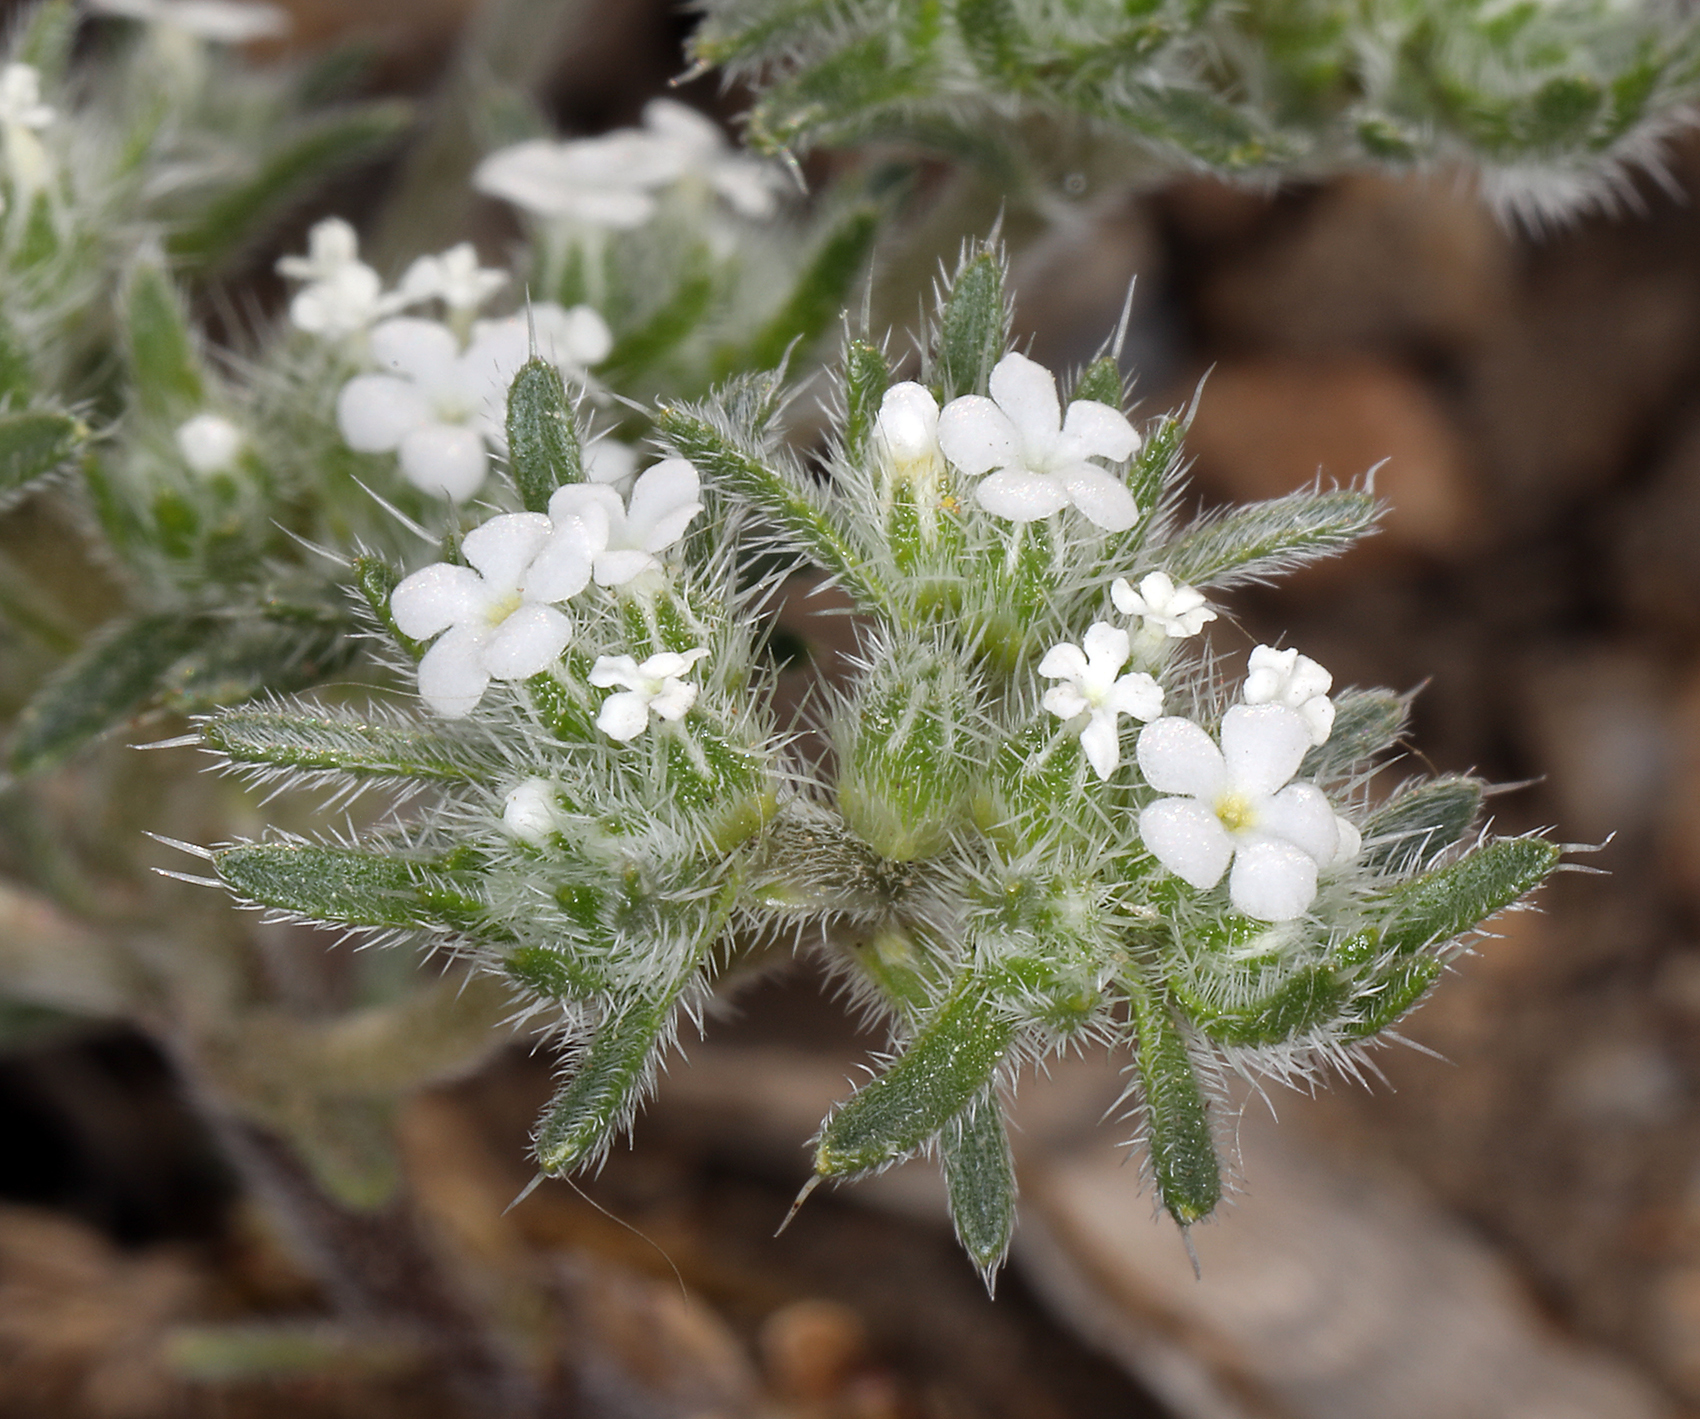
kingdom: Plantae
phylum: Tracheophyta
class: Magnoliopsida
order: Boraginales
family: Boraginaceae
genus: Greeneocharis
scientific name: Greeneocharis circumscissa
